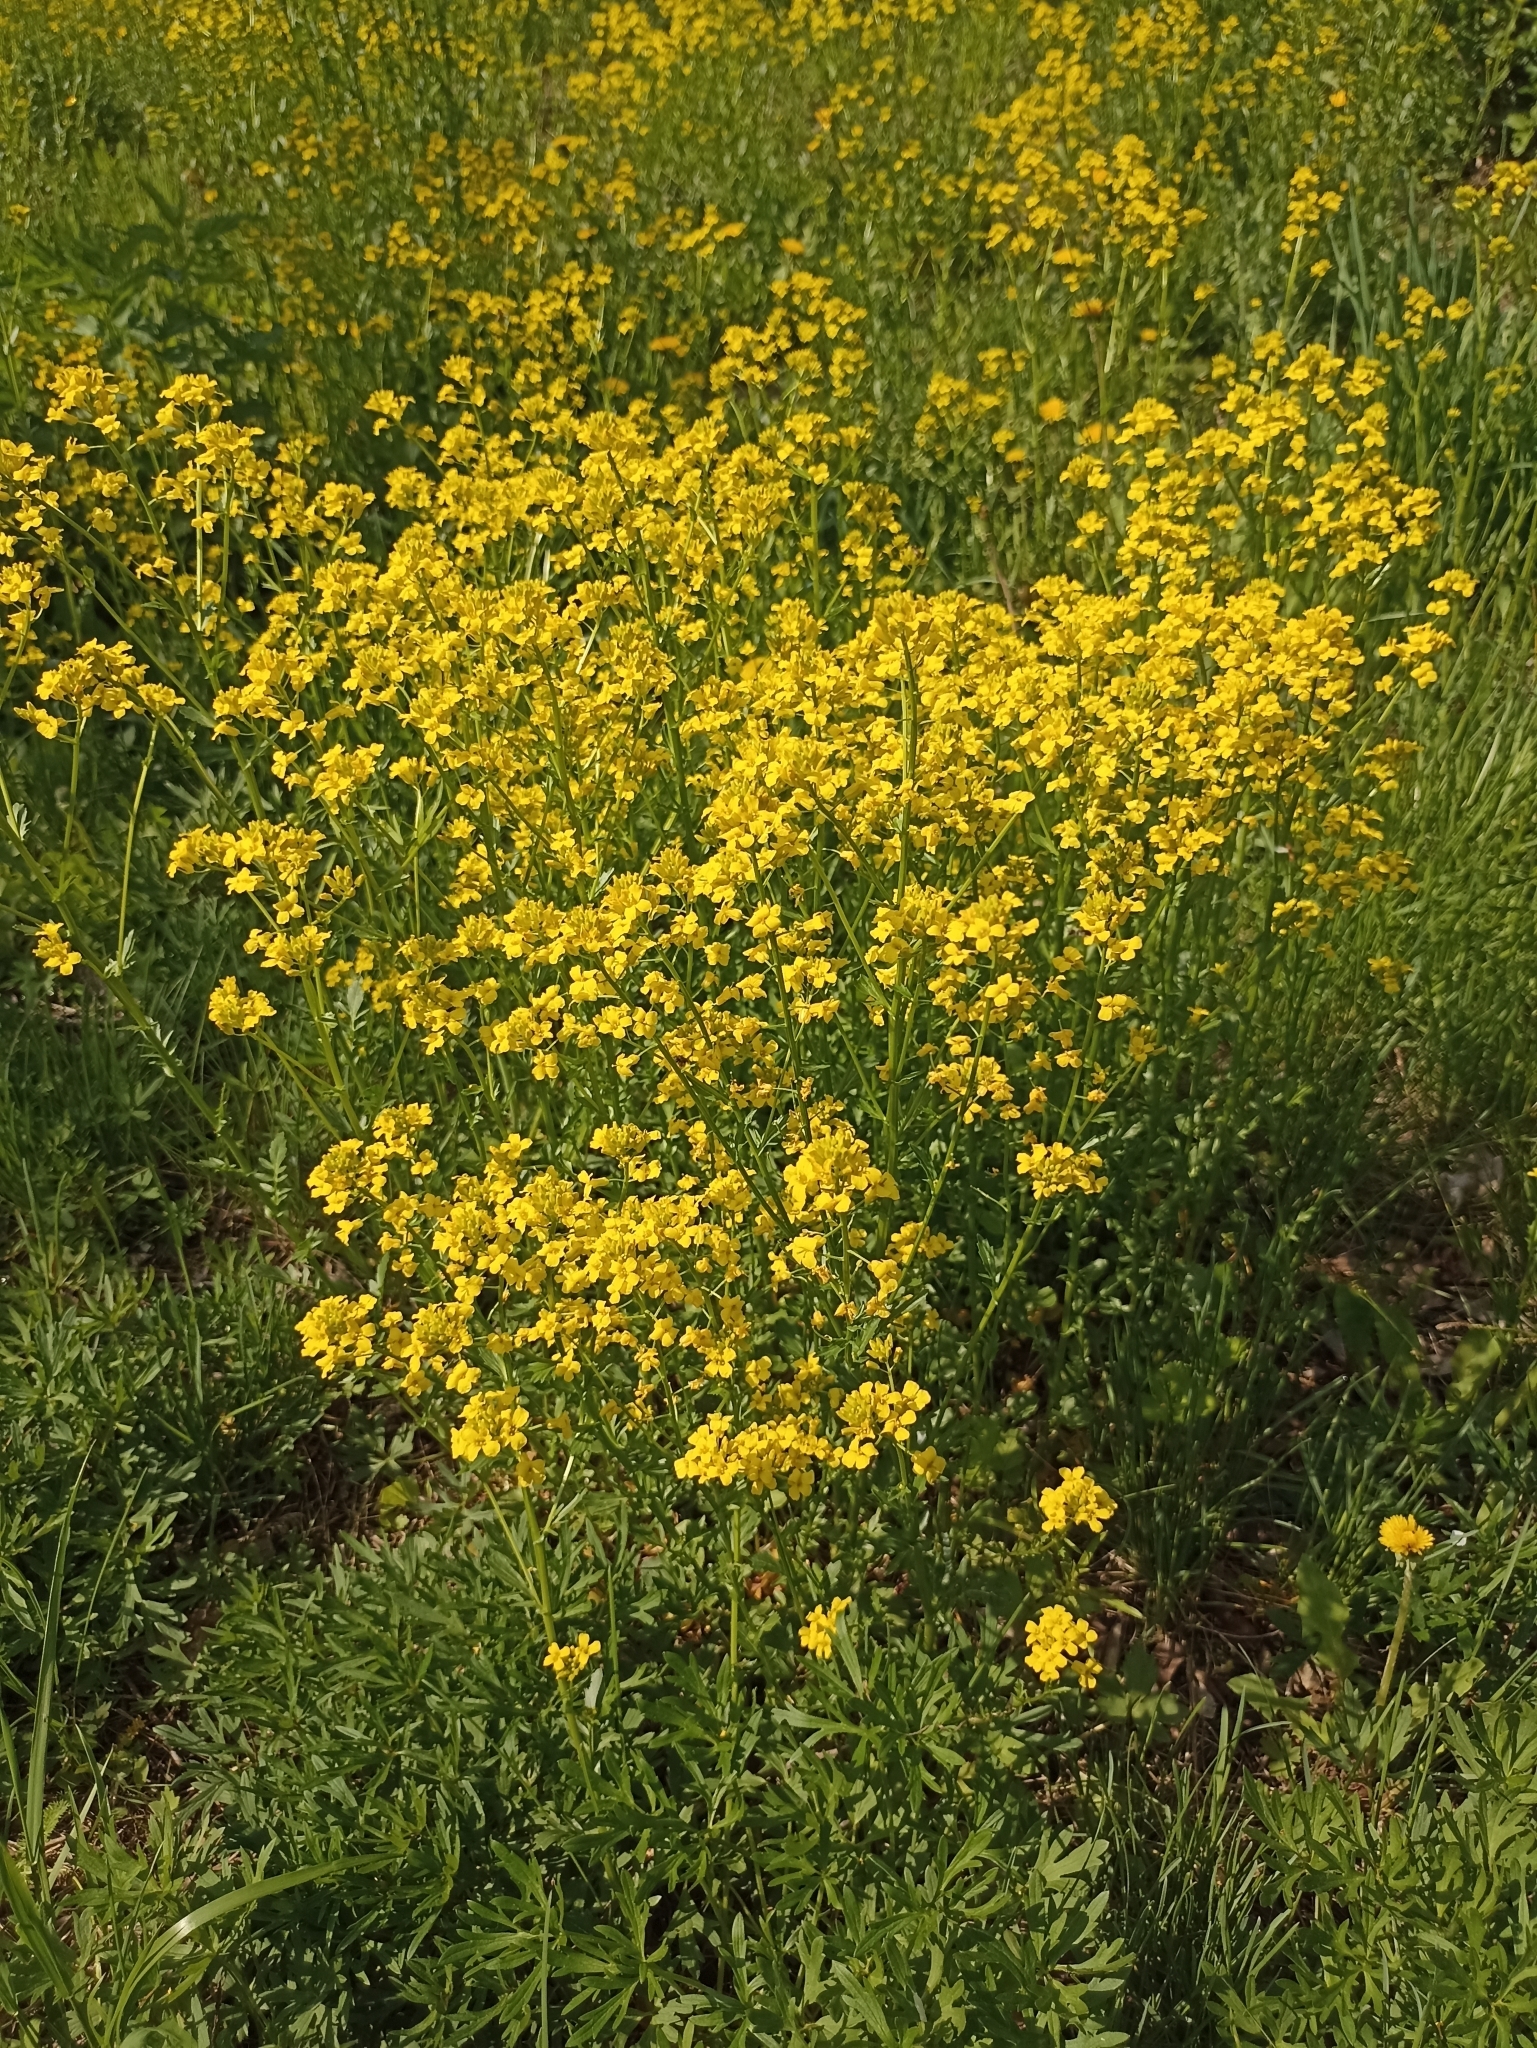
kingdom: Plantae
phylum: Tracheophyta
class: Magnoliopsida
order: Brassicales
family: Brassicaceae
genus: Barbarea
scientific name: Barbarea vulgaris
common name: Cressy-greens
